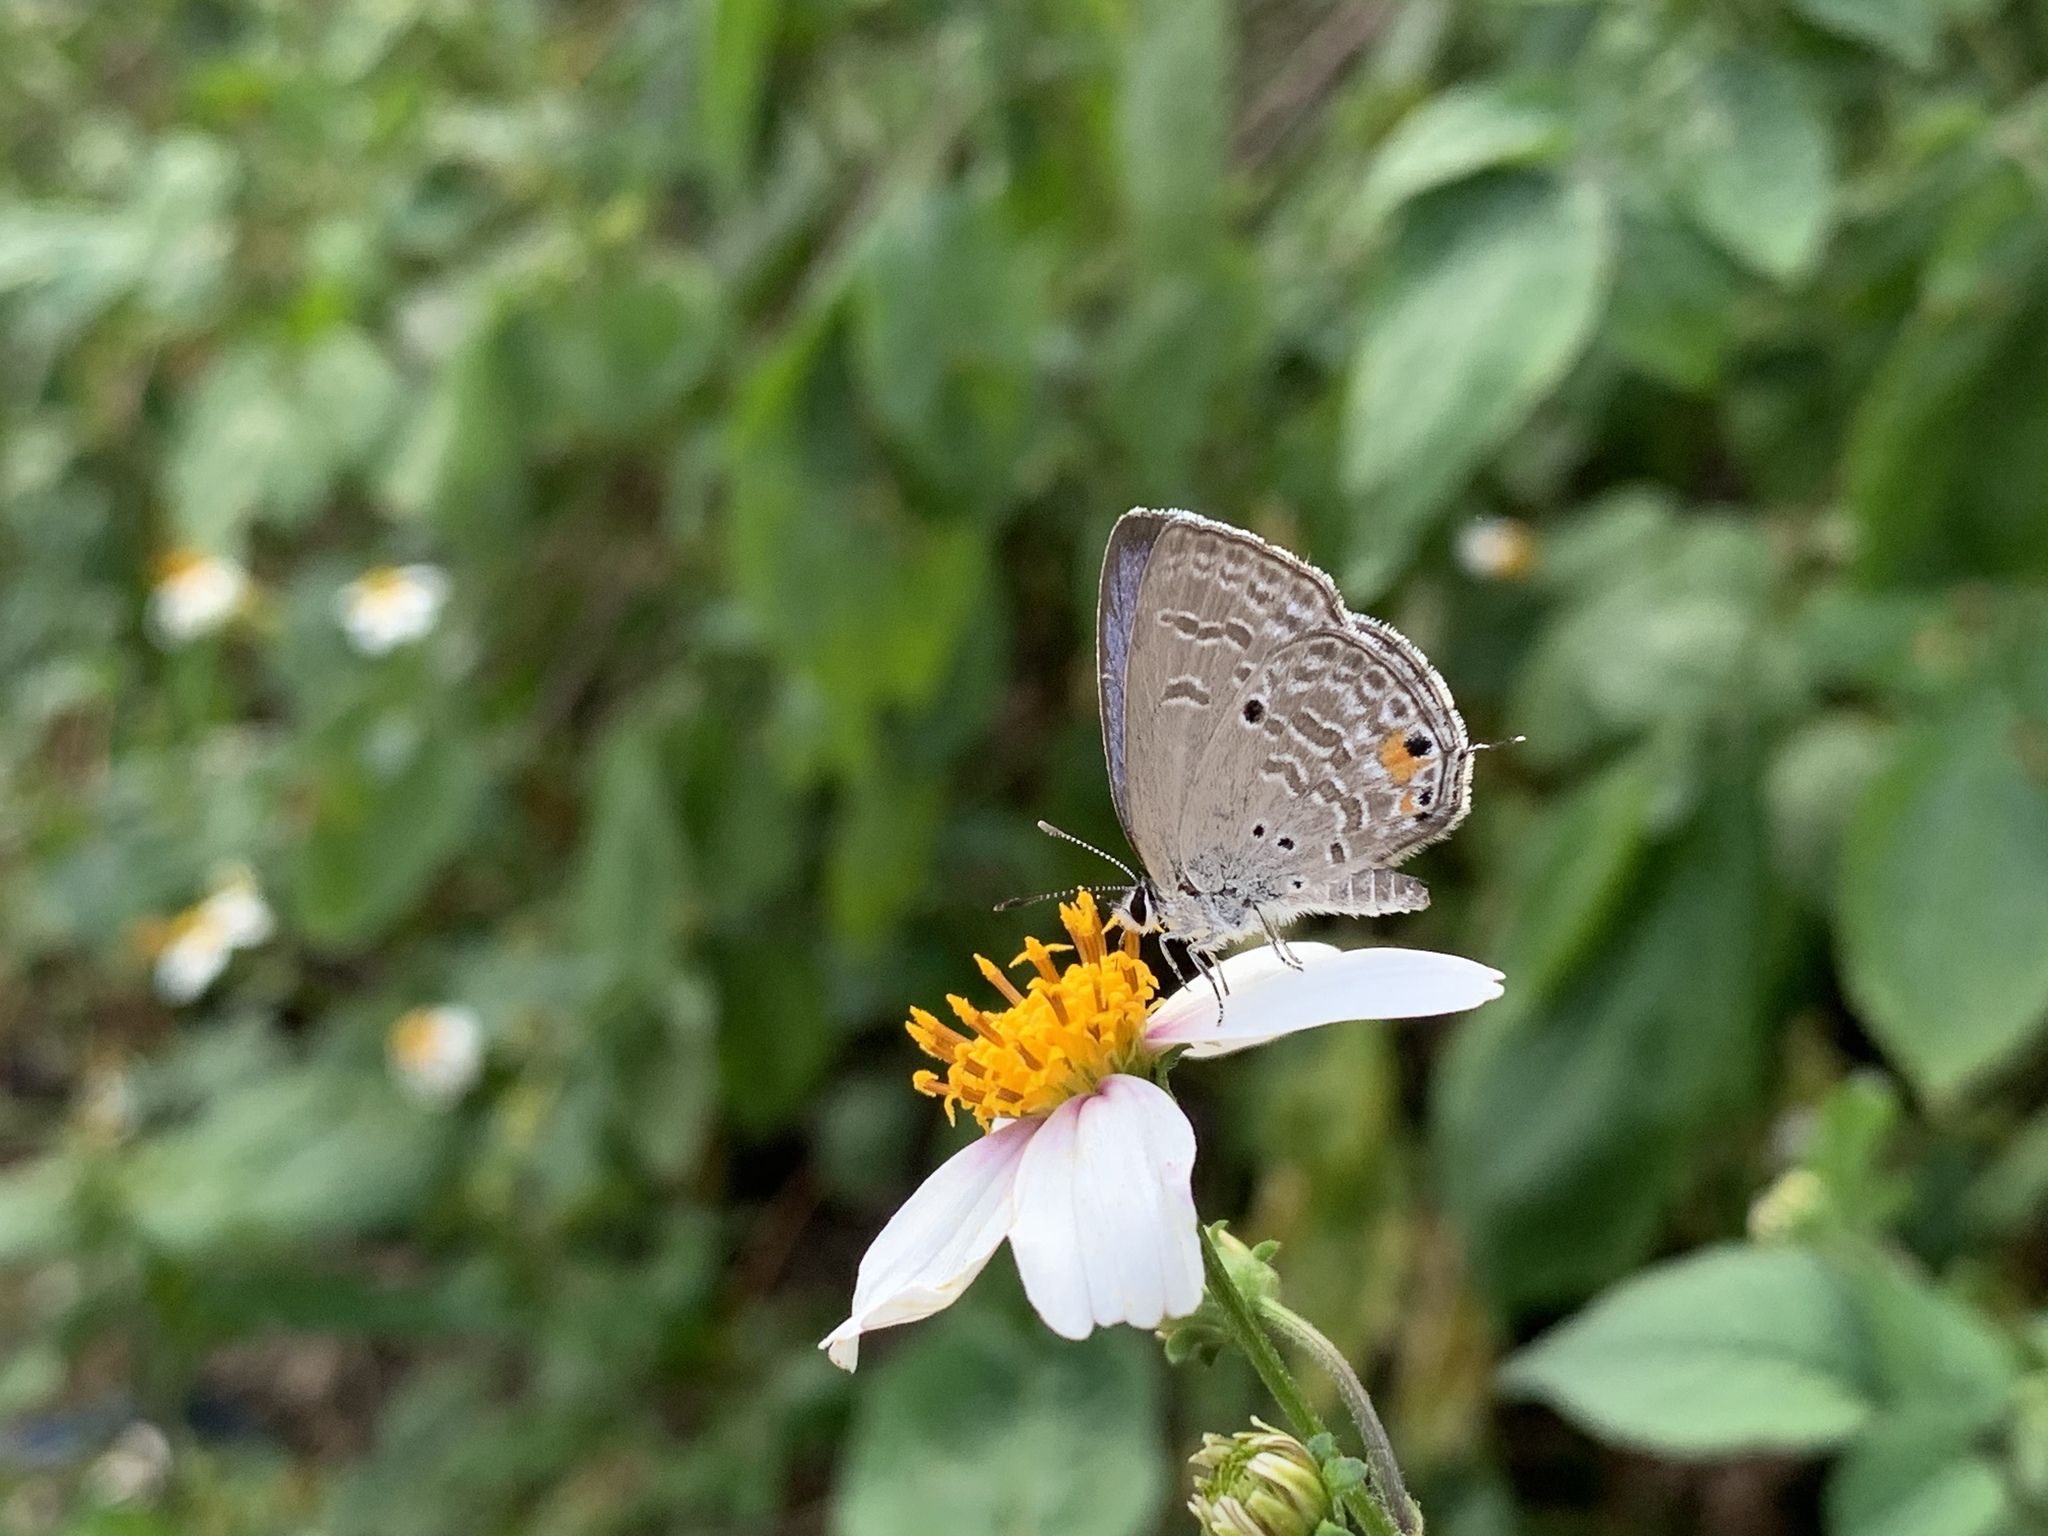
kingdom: Animalia
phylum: Arthropoda
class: Insecta
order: Lepidoptera
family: Lycaenidae
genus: Luthrodes
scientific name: Luthrodes pandava
